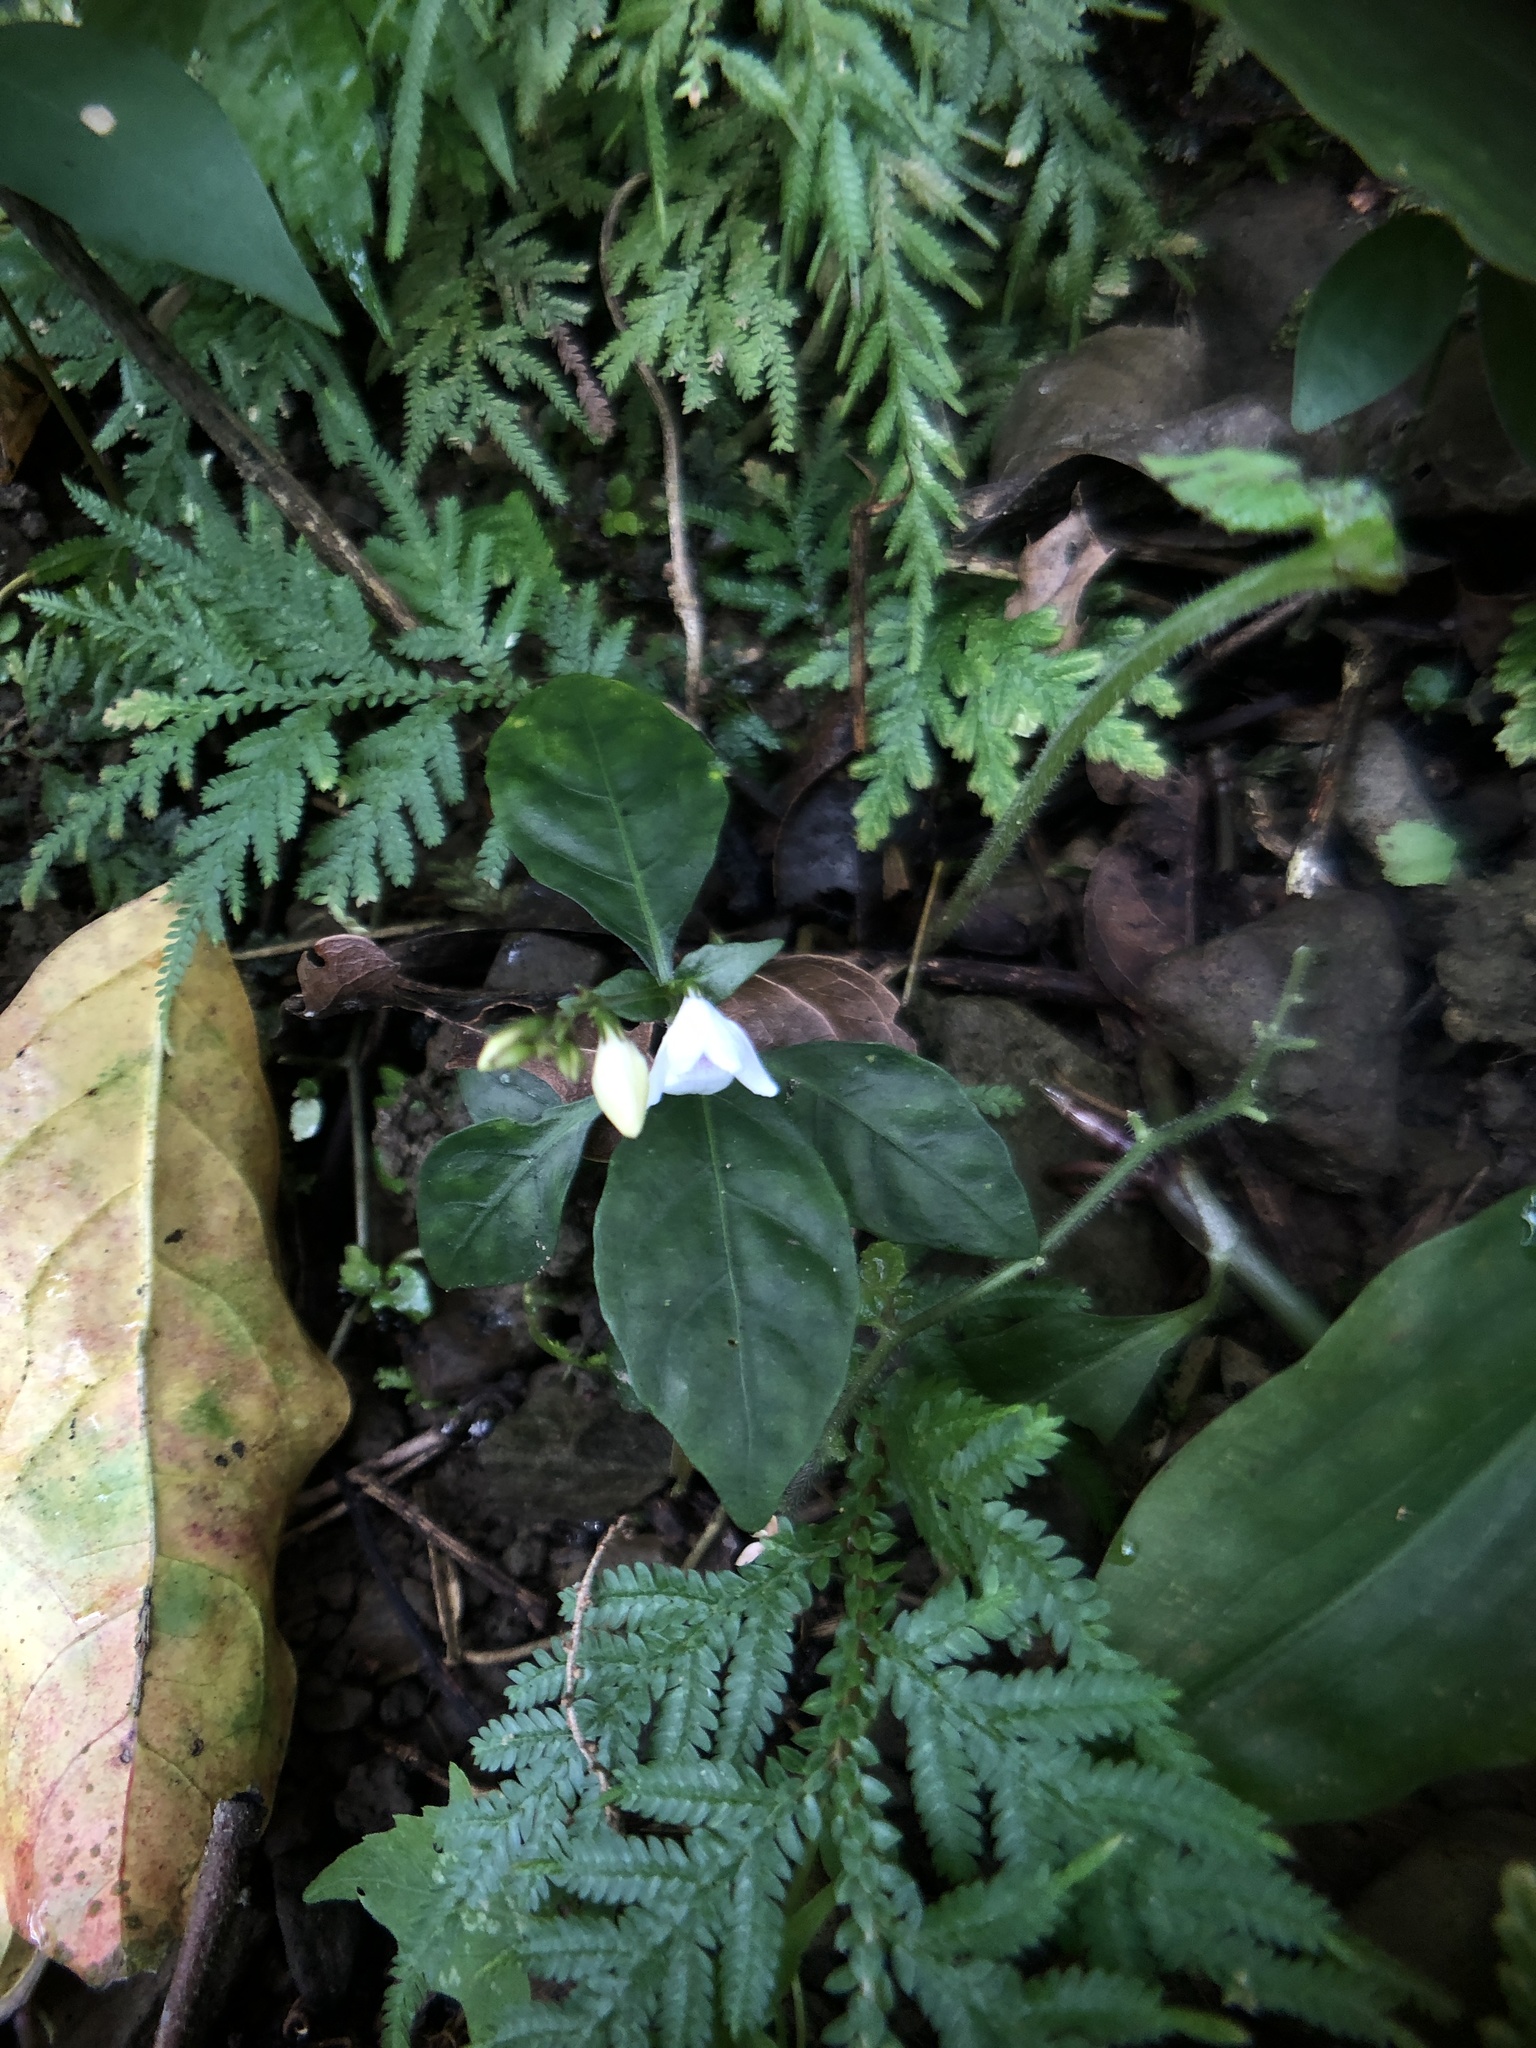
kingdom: Plantae
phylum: Tracheophyta
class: Magnoliopsida
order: Lamiales
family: Acanthaceae
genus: Codonacanthus
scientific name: Codonacanthus pauciflorus
